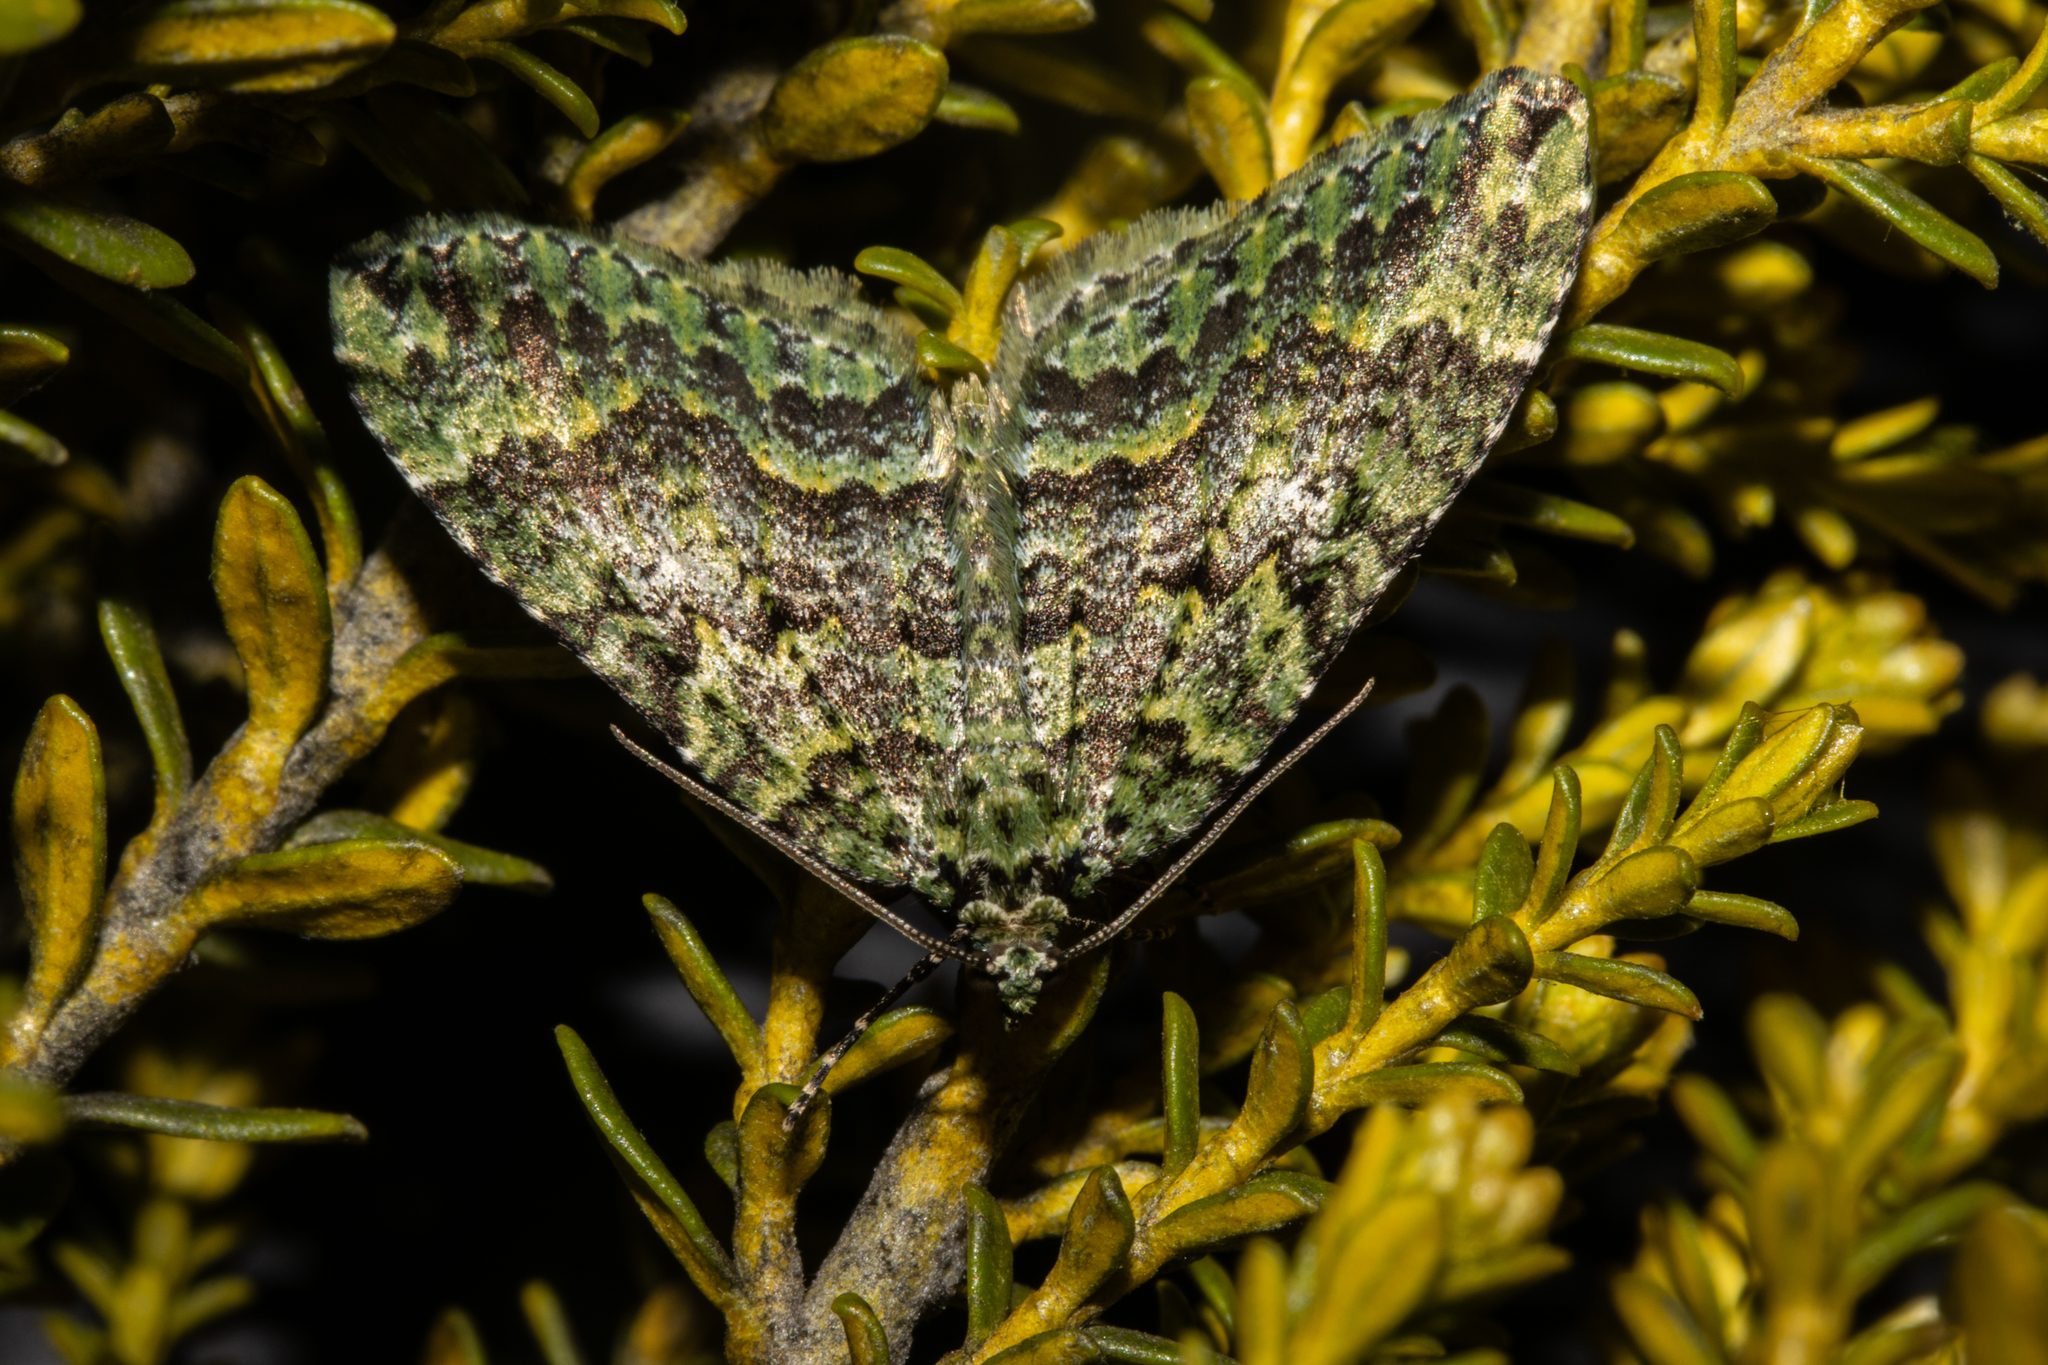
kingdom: Animalia
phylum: Arthropoda
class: Insecta
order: Lepidoptera
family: Geometridae
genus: Austrocidaria
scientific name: Austrocidaria callichlora
